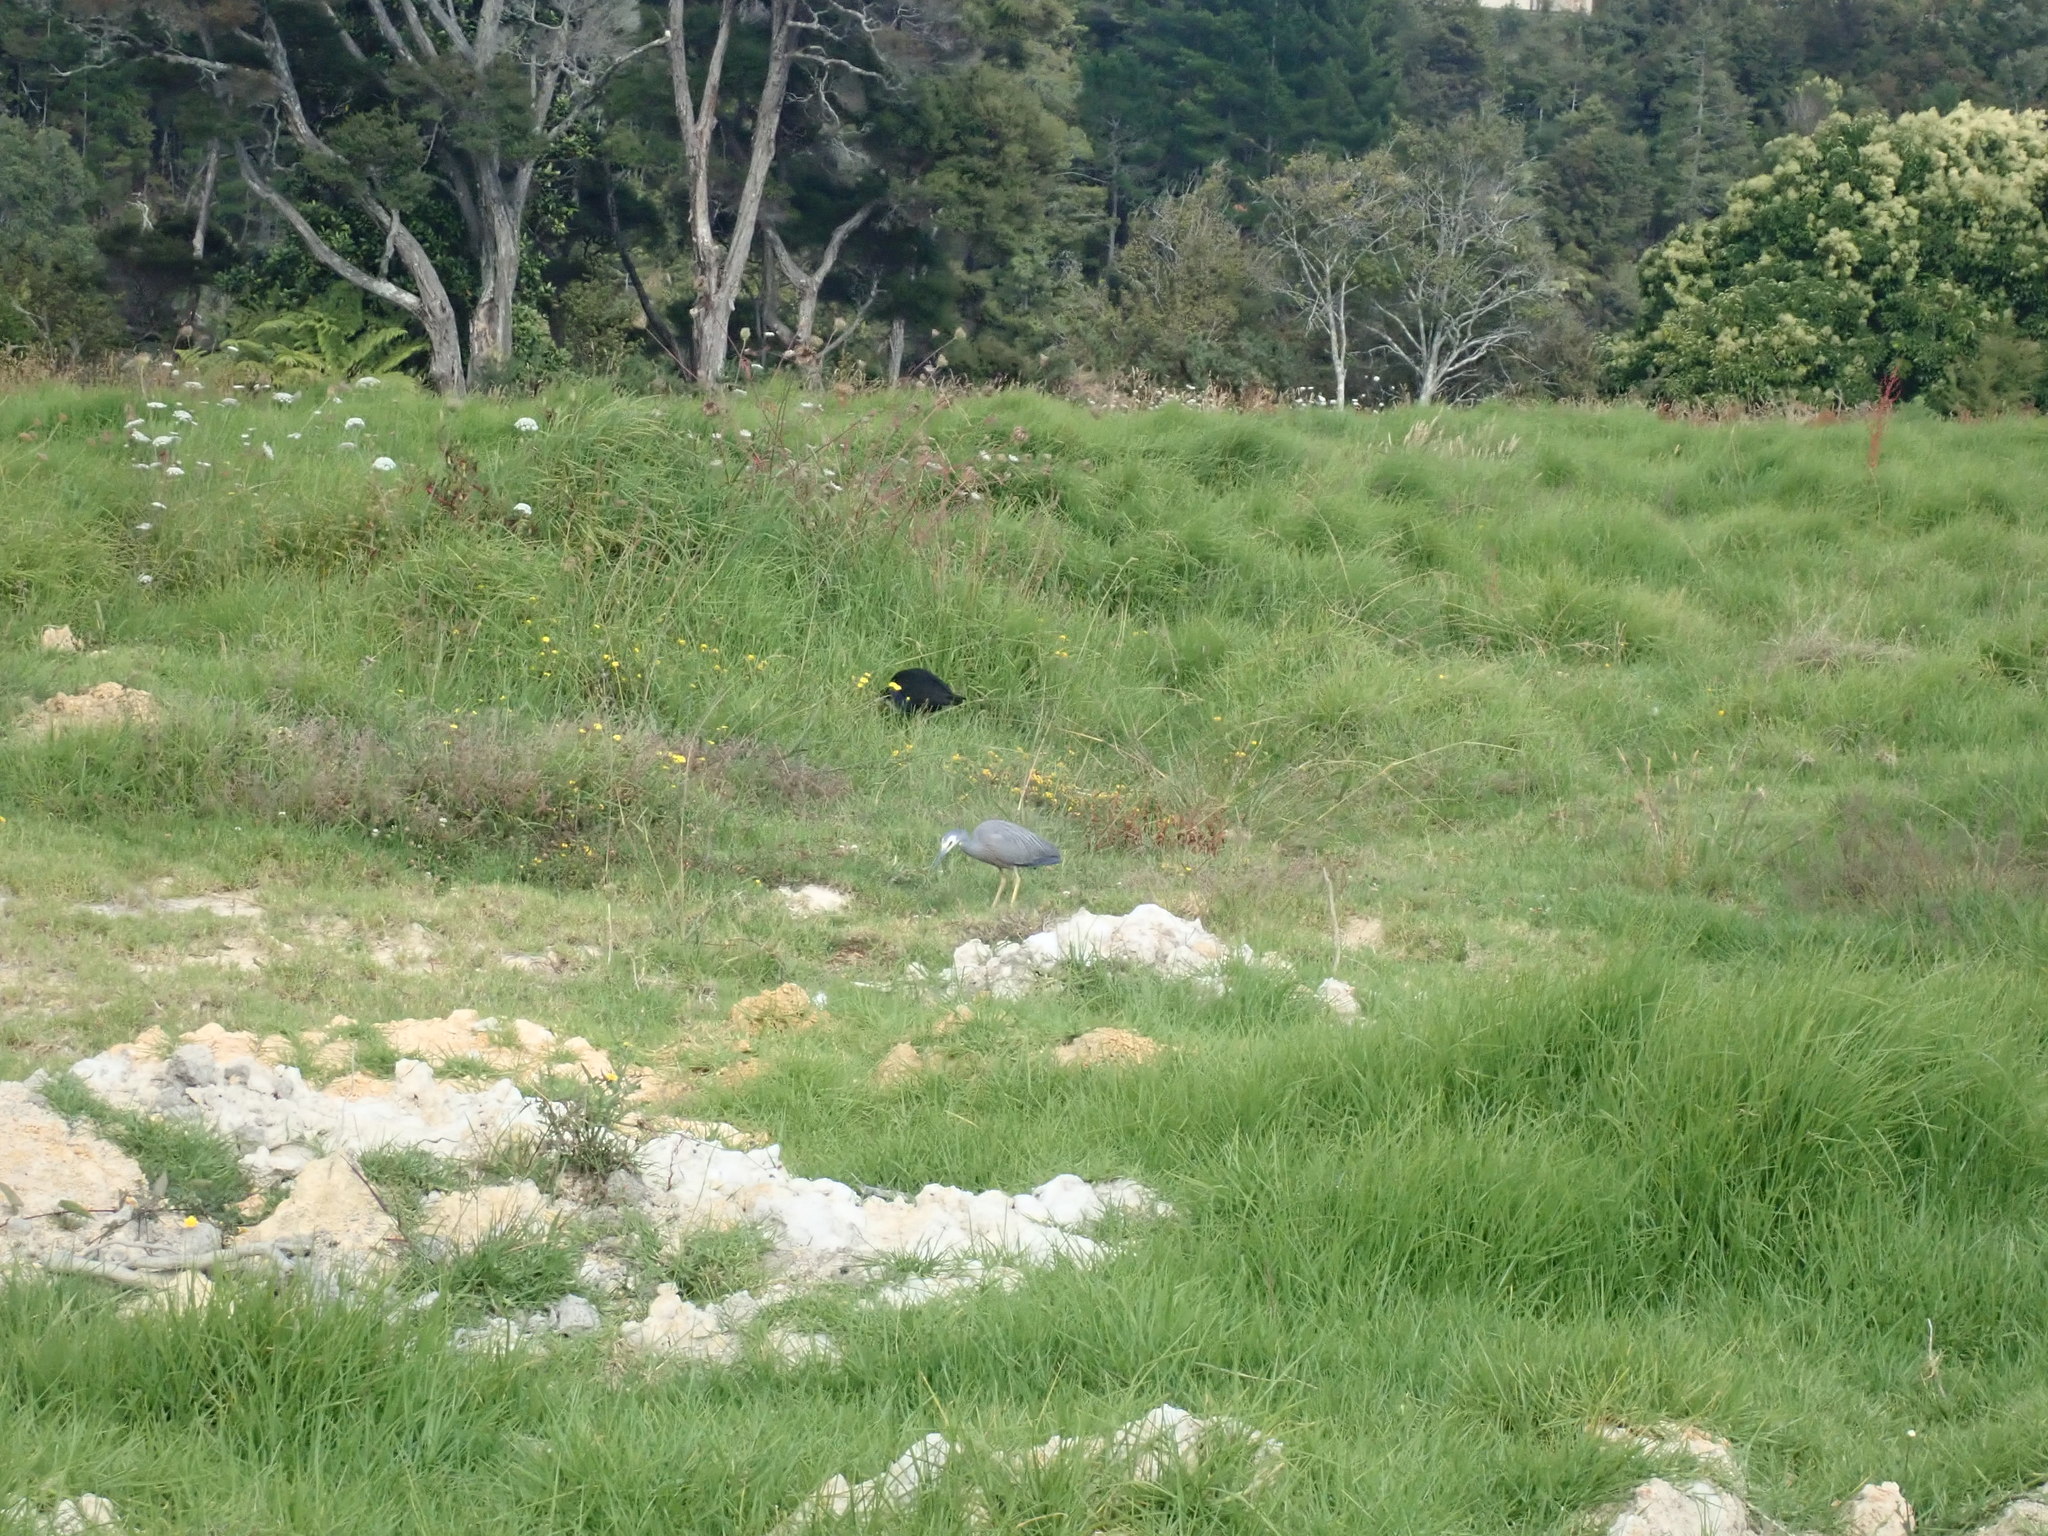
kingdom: Animalia
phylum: Chordata
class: Aves
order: Pelecaniformes
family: Ardeidae
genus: Egretta
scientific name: Egretta novaehollandiae
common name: White-faced heron
